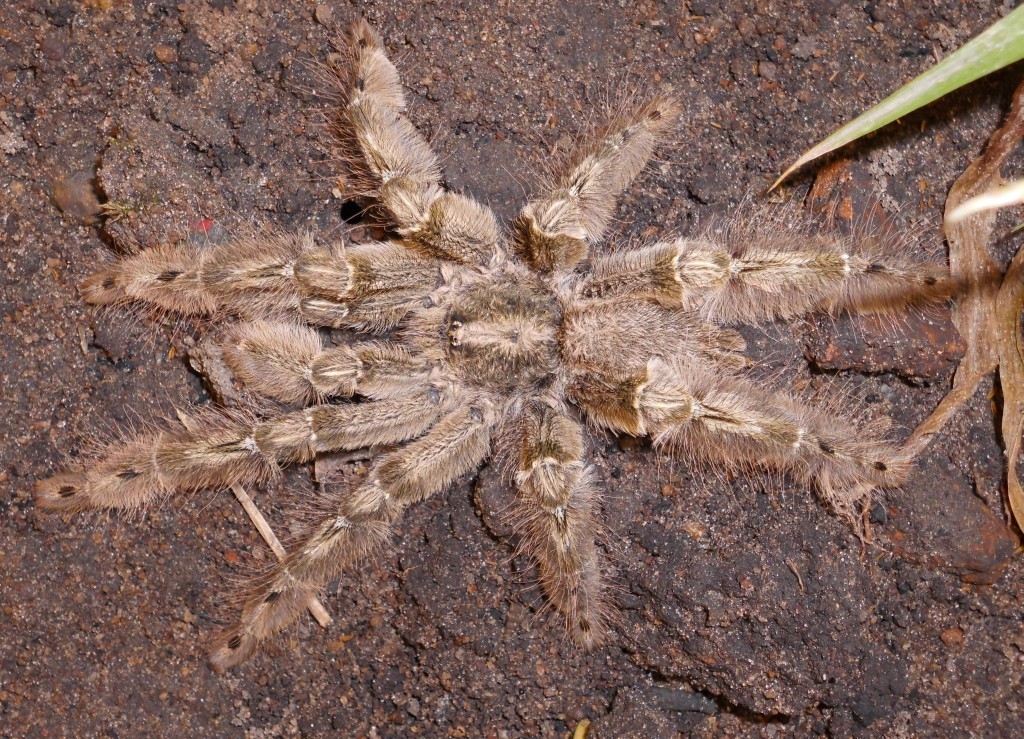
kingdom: Animalia
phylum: Arthropoda
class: Arachnida
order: Araneae
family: Theraphosidae
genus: Stromatopelma
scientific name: Stromatopelma calceatum
